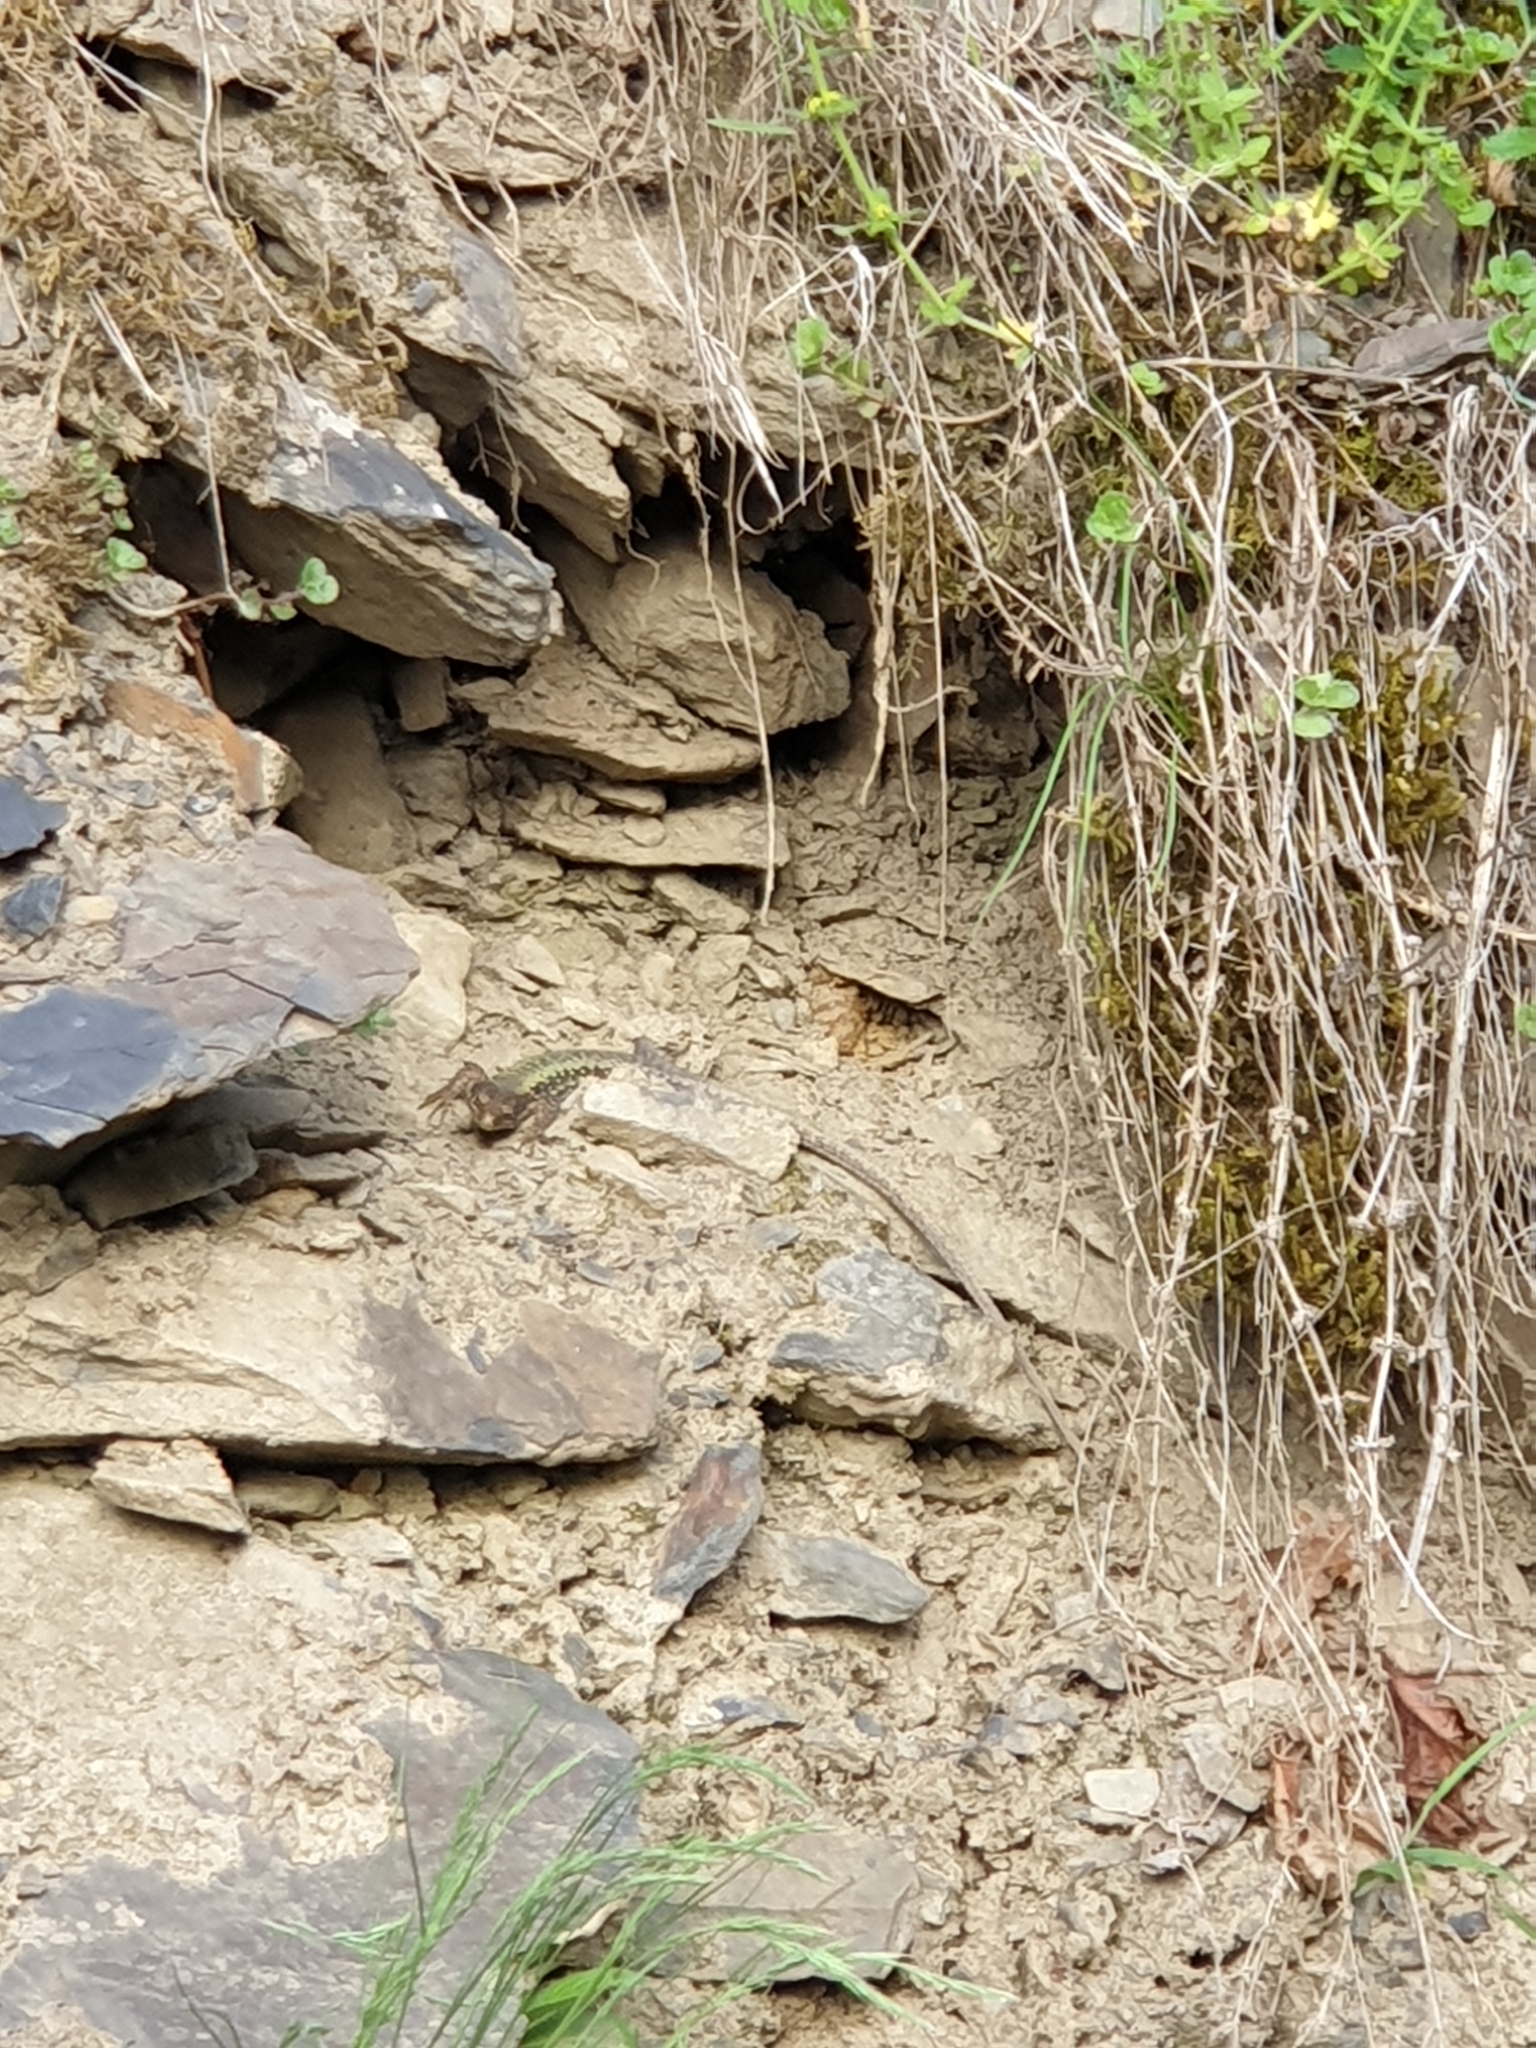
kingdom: Animalia
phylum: Chordata
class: Squamata
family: Lacertidae
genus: Darevskia
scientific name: Darevskia daghestanica
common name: Dagestan lizard
